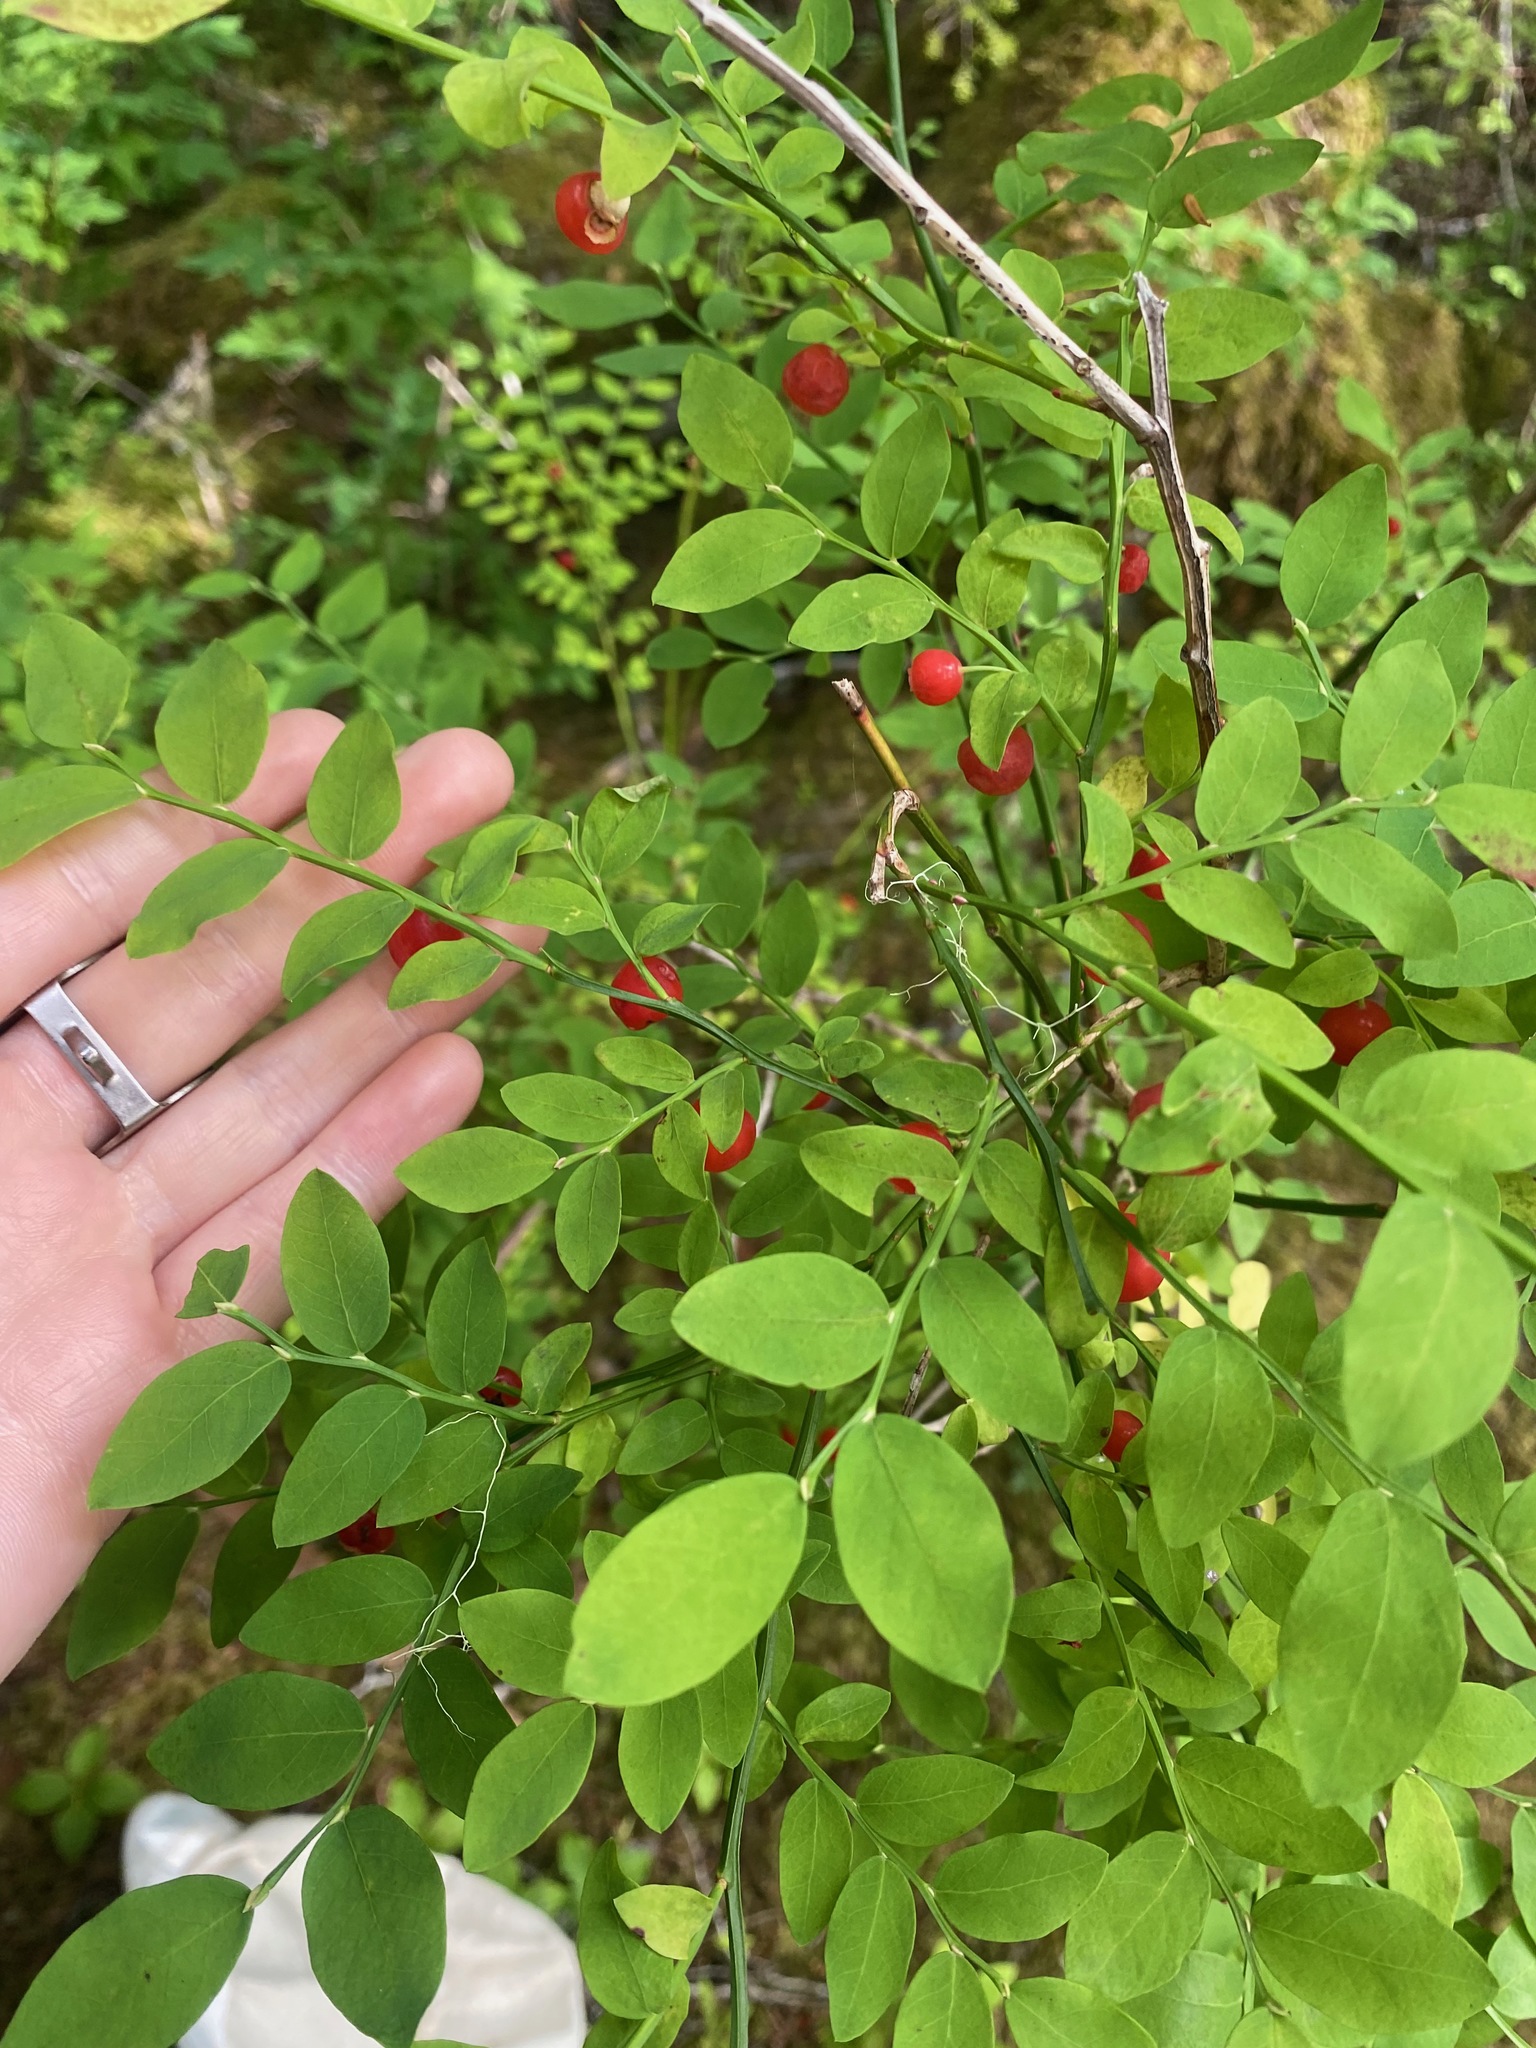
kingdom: Plantae
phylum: Tracheophyta
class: Magnoliopsida
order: Ericales
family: Ericaceae
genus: Vaccinium
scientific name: Vaccinium parvifolium
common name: Red-huckleberry
